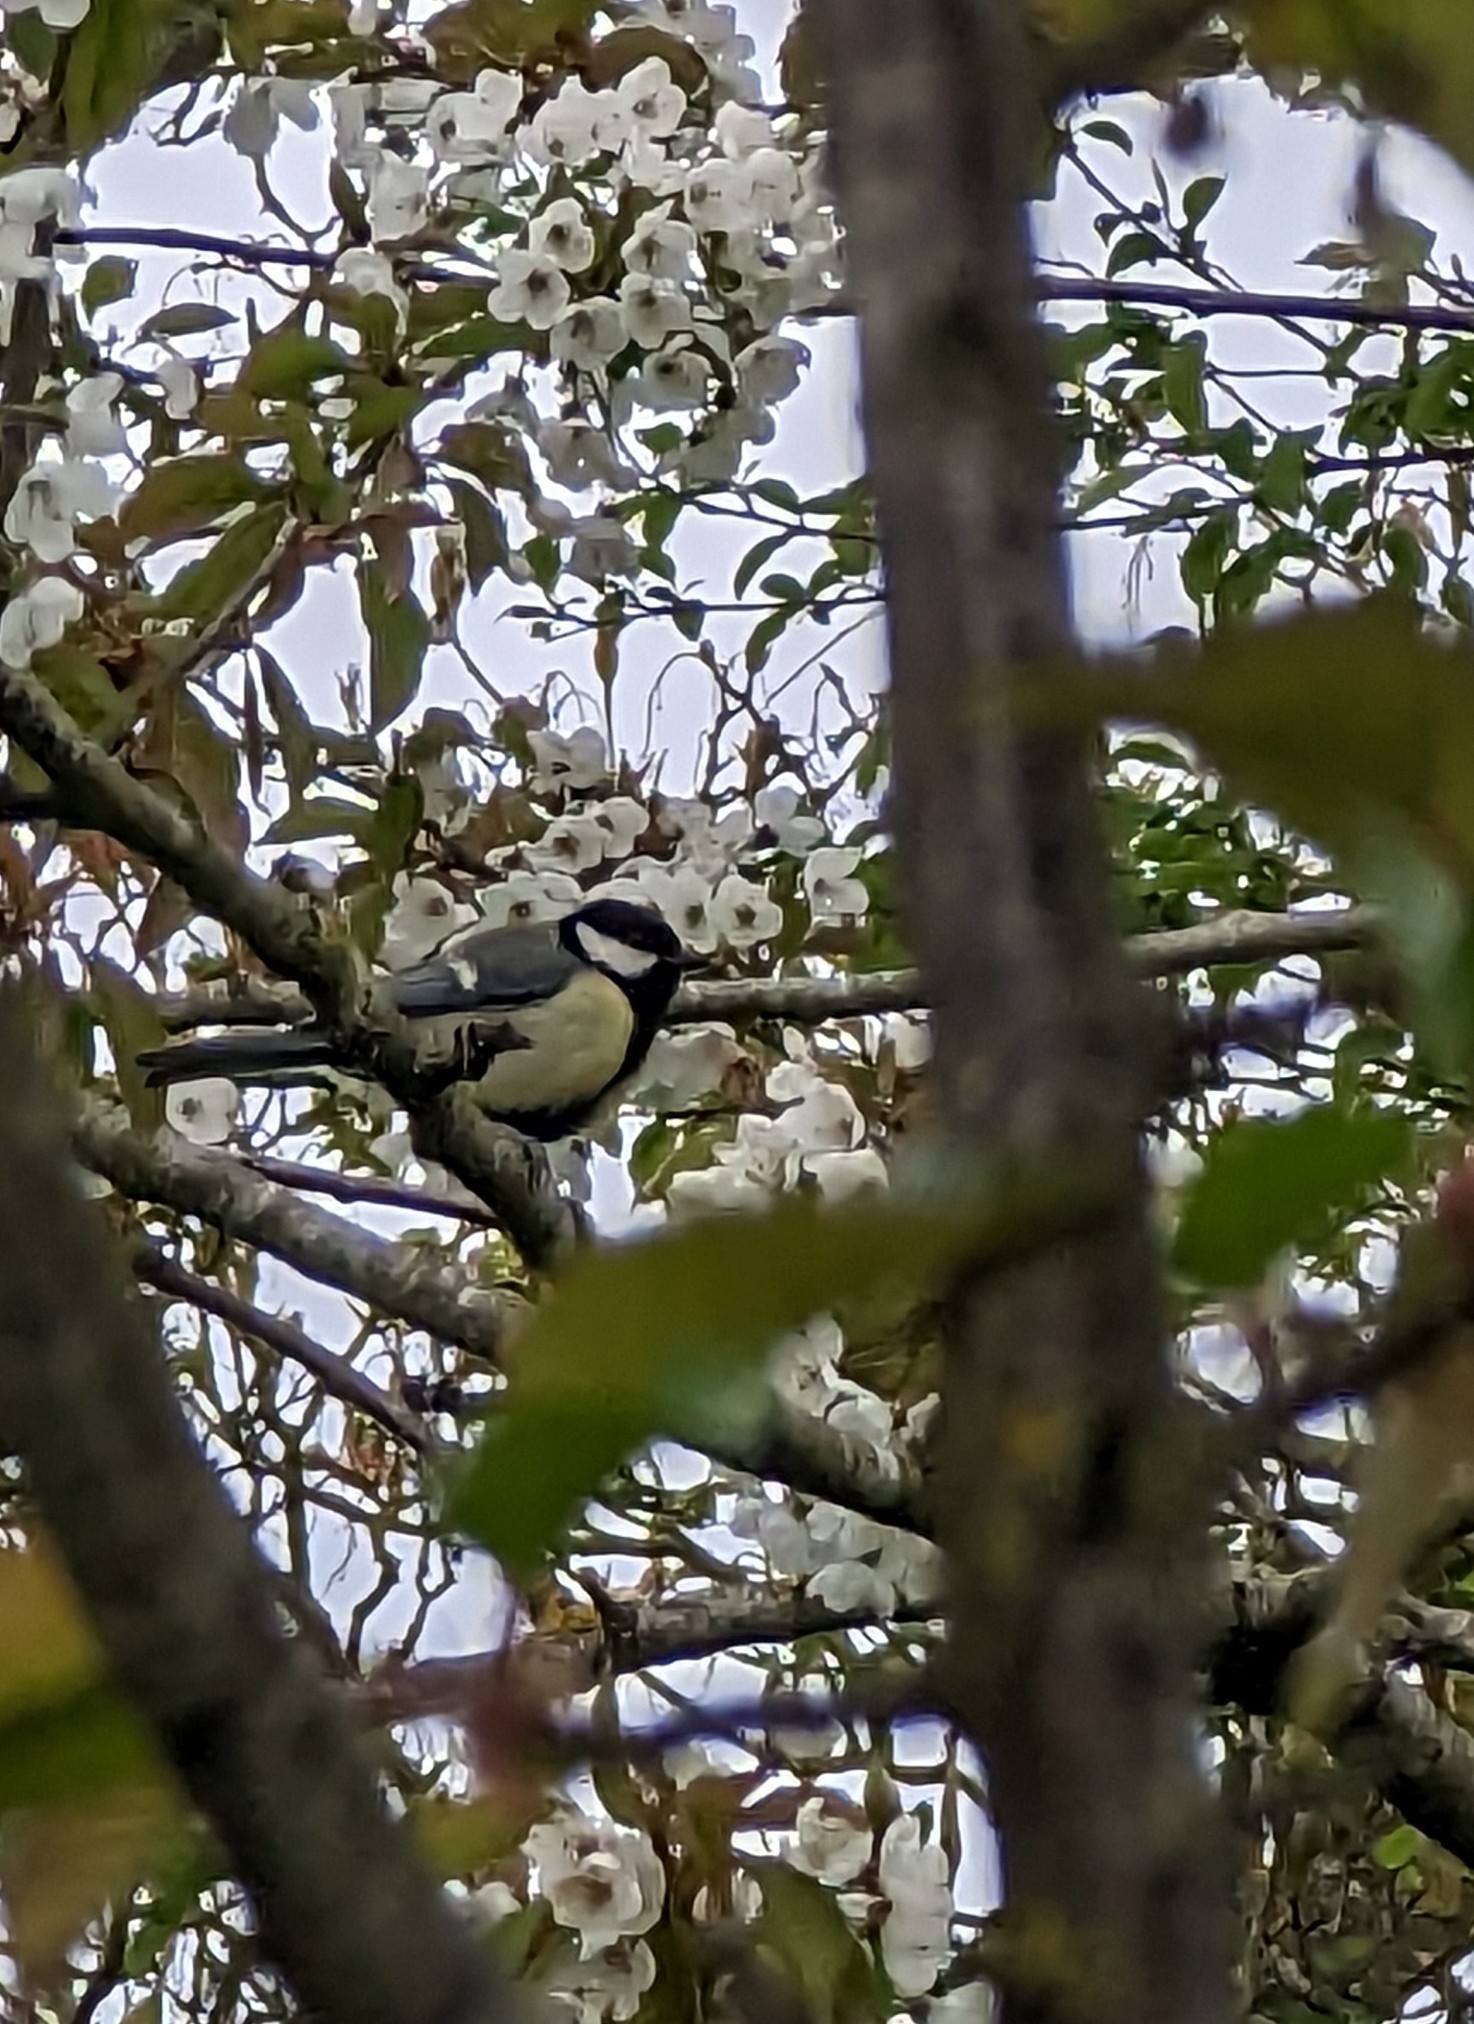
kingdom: Animalia
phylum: Chordata
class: Aves
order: Passeriformes
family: Paridae
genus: Parus
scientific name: Parus major
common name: Great tit
